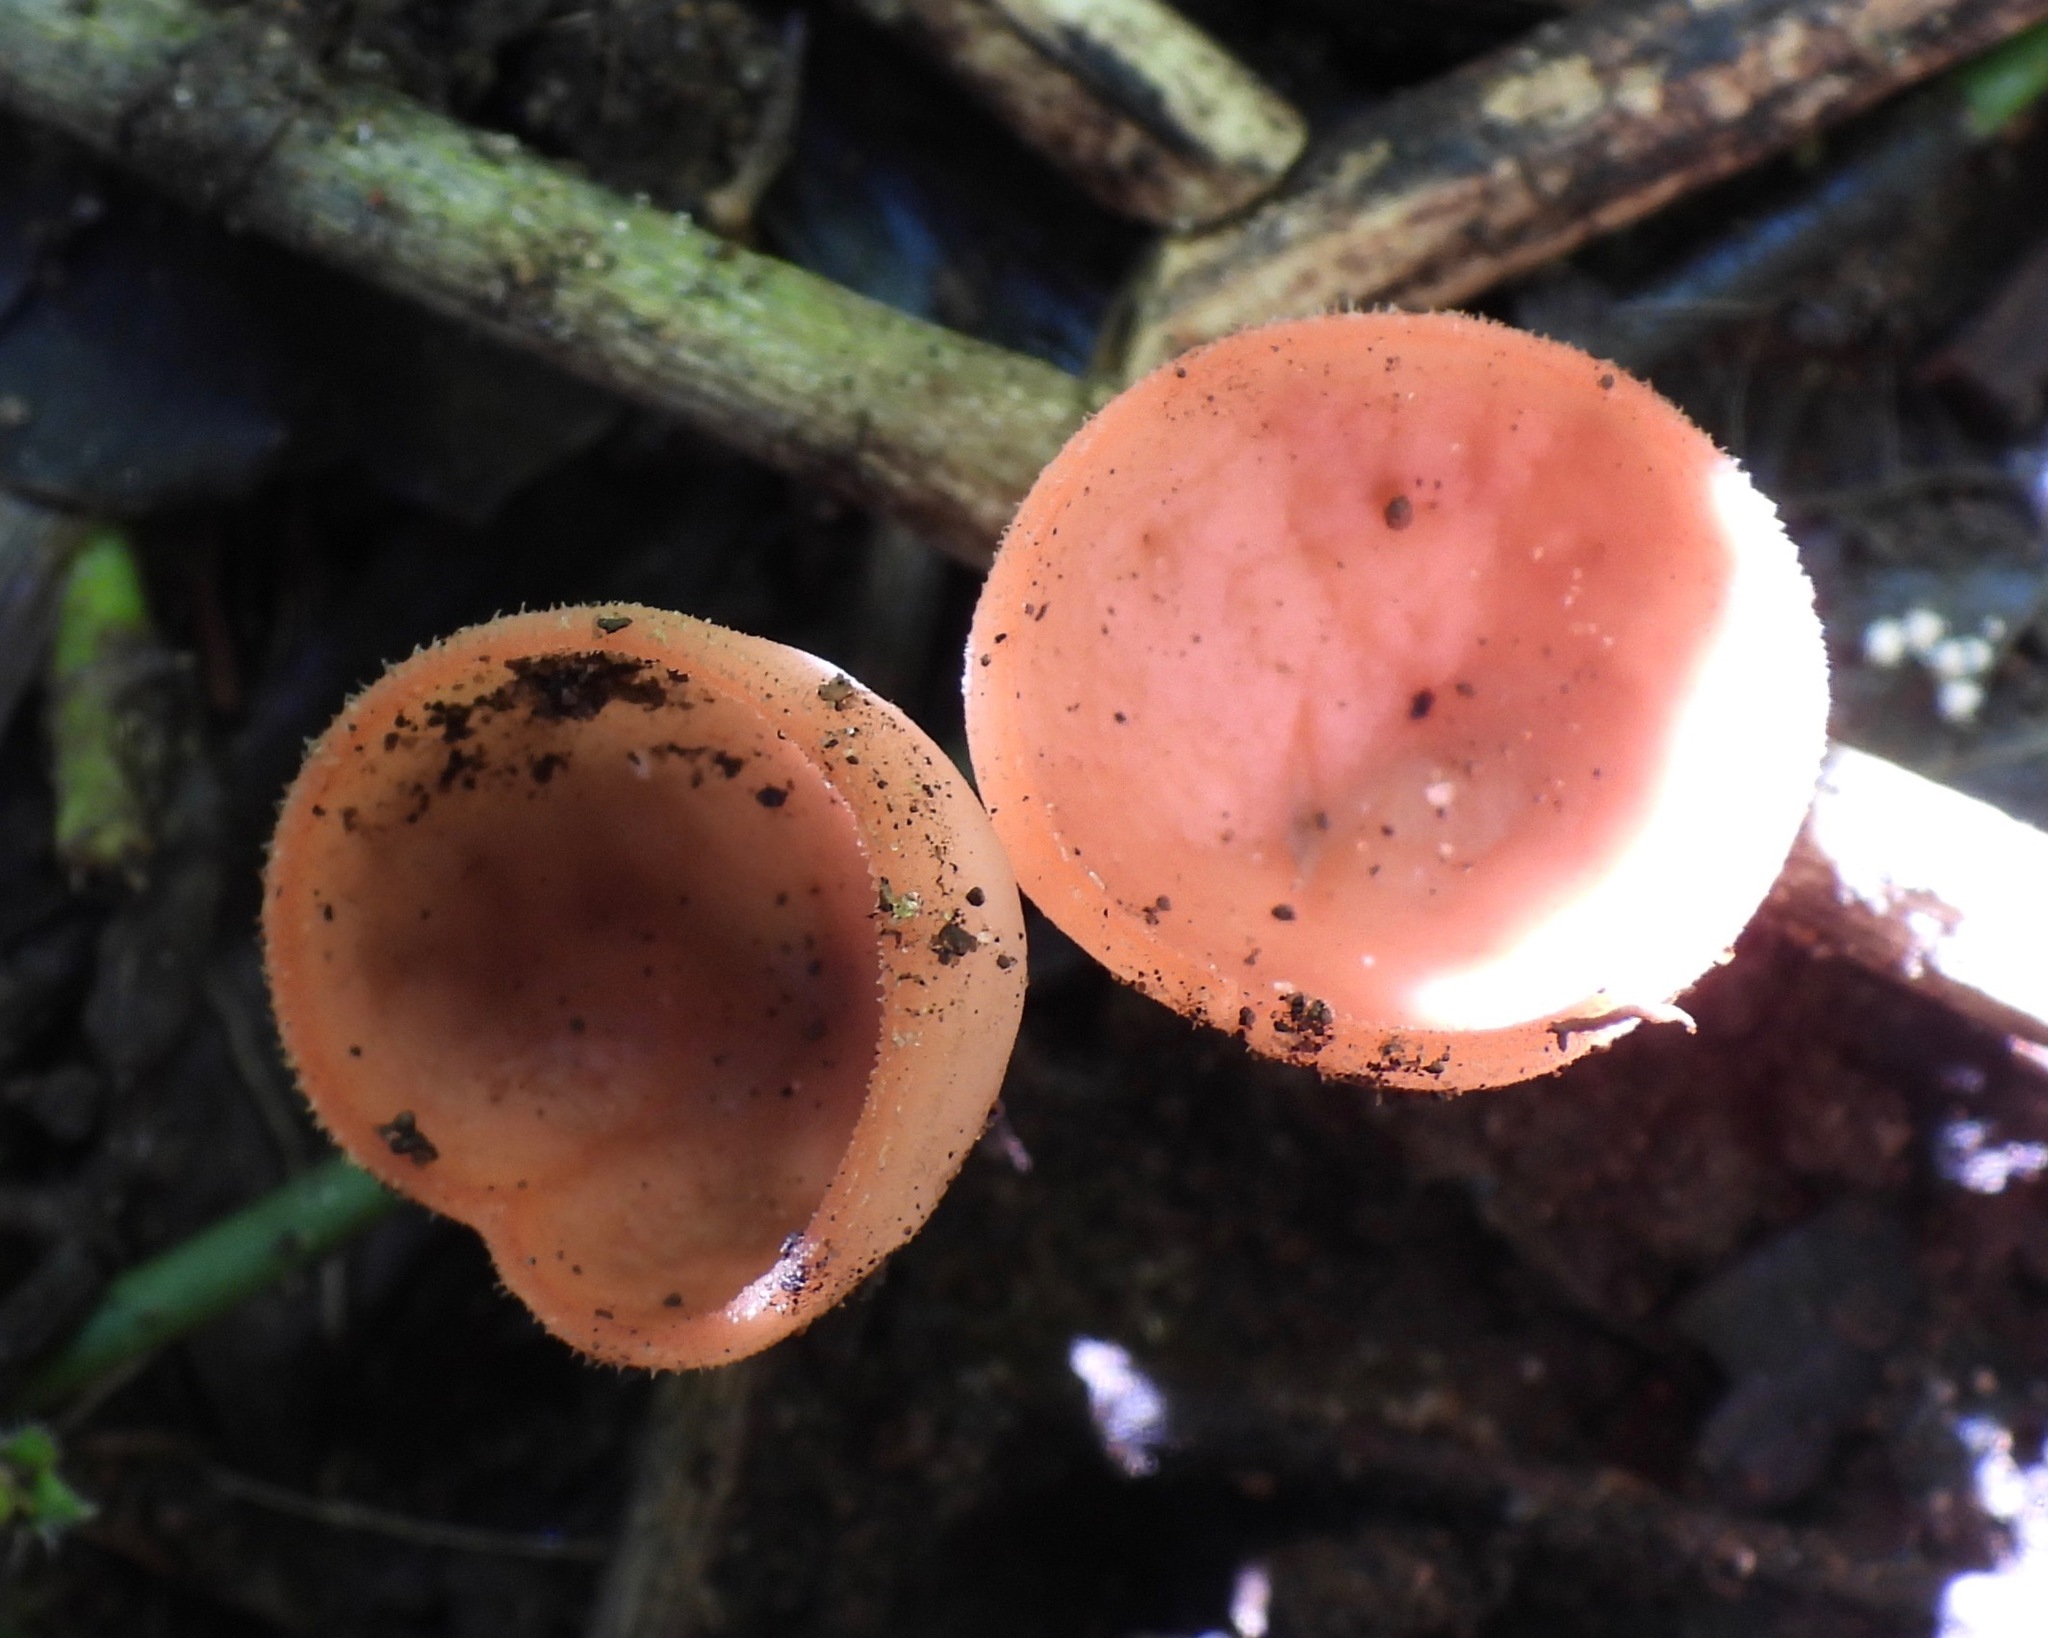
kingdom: Fungi
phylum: Ascomycota
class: Pezizomycetes
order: Pezizales
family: Sarcoscyphaceae
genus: Cookeina
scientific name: Cookeina speciosa
